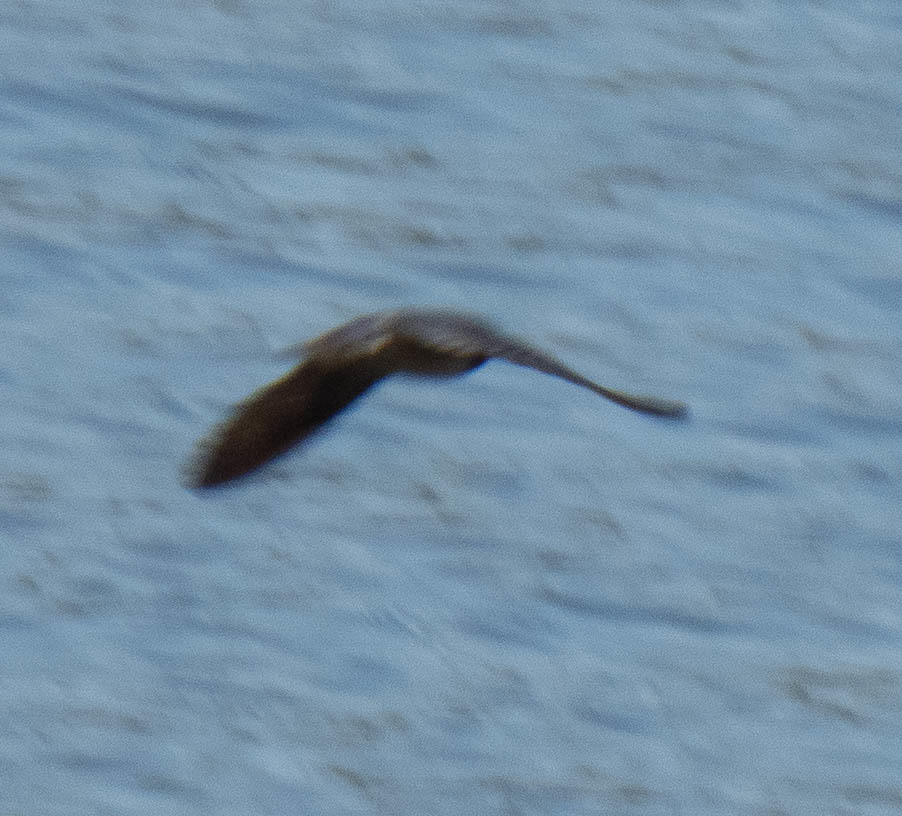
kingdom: Animalia
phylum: Chordata
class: Aves
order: Passeriformes
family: Hirundinidae
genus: Hirundo
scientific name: Hirundo rustica
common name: Barn swallow
